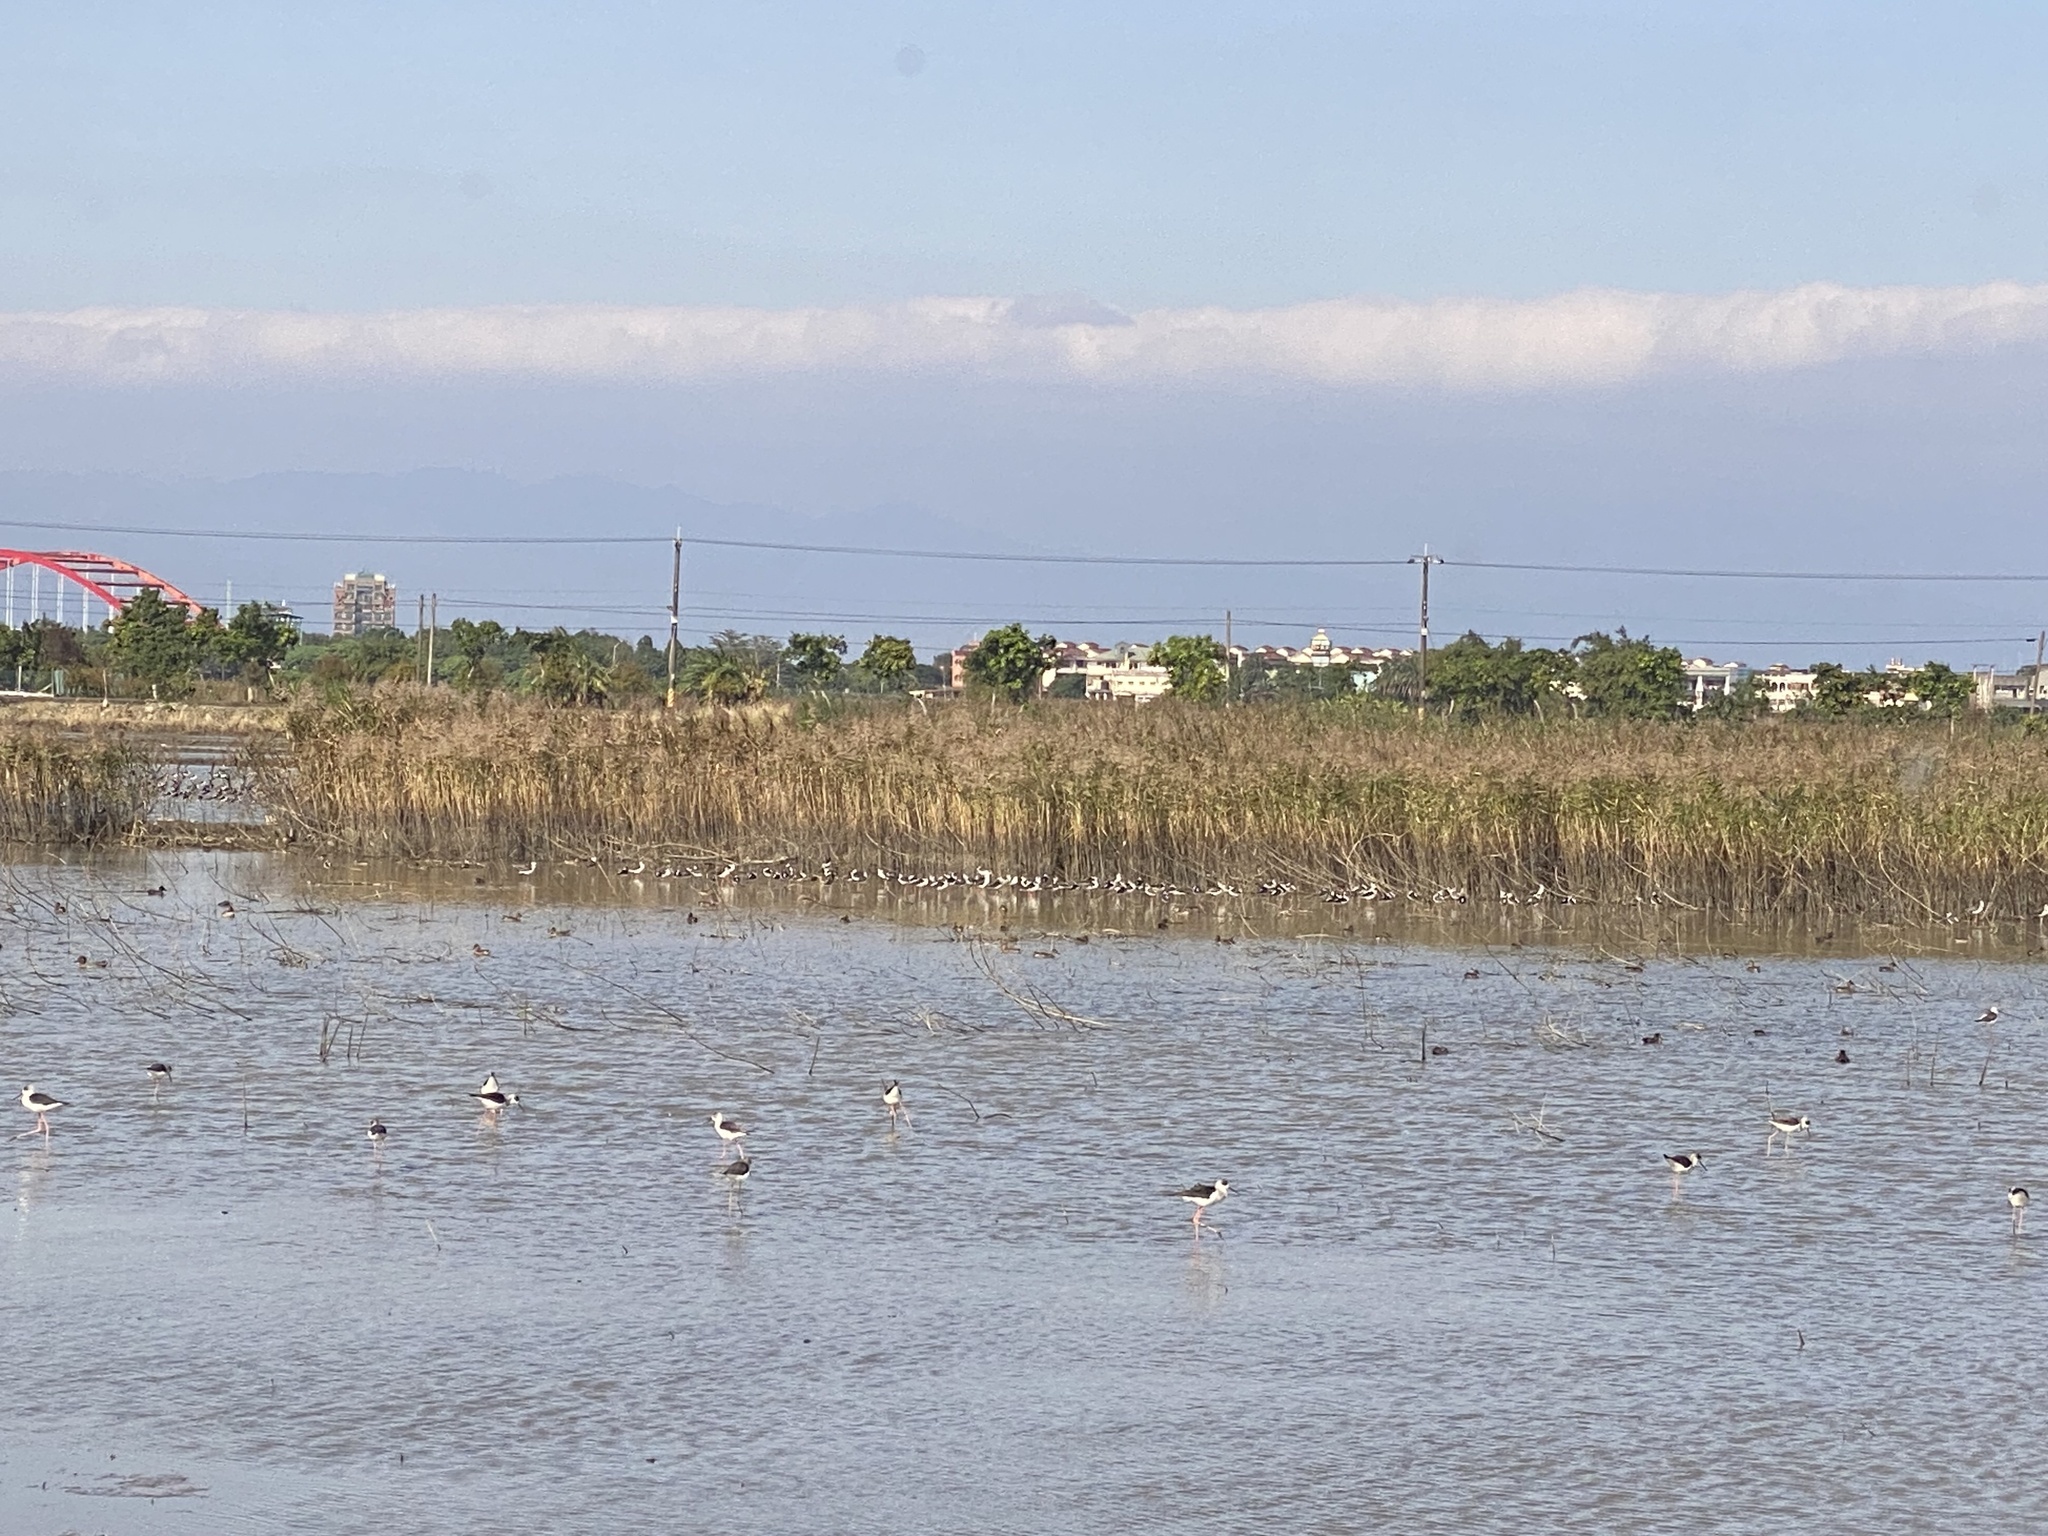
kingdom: Animalia
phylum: Chordata
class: Aves
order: Charadriiformes
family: Recurvirostridae
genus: Himantopus
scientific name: Himantopus himantopus
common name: Black-winged stilt
